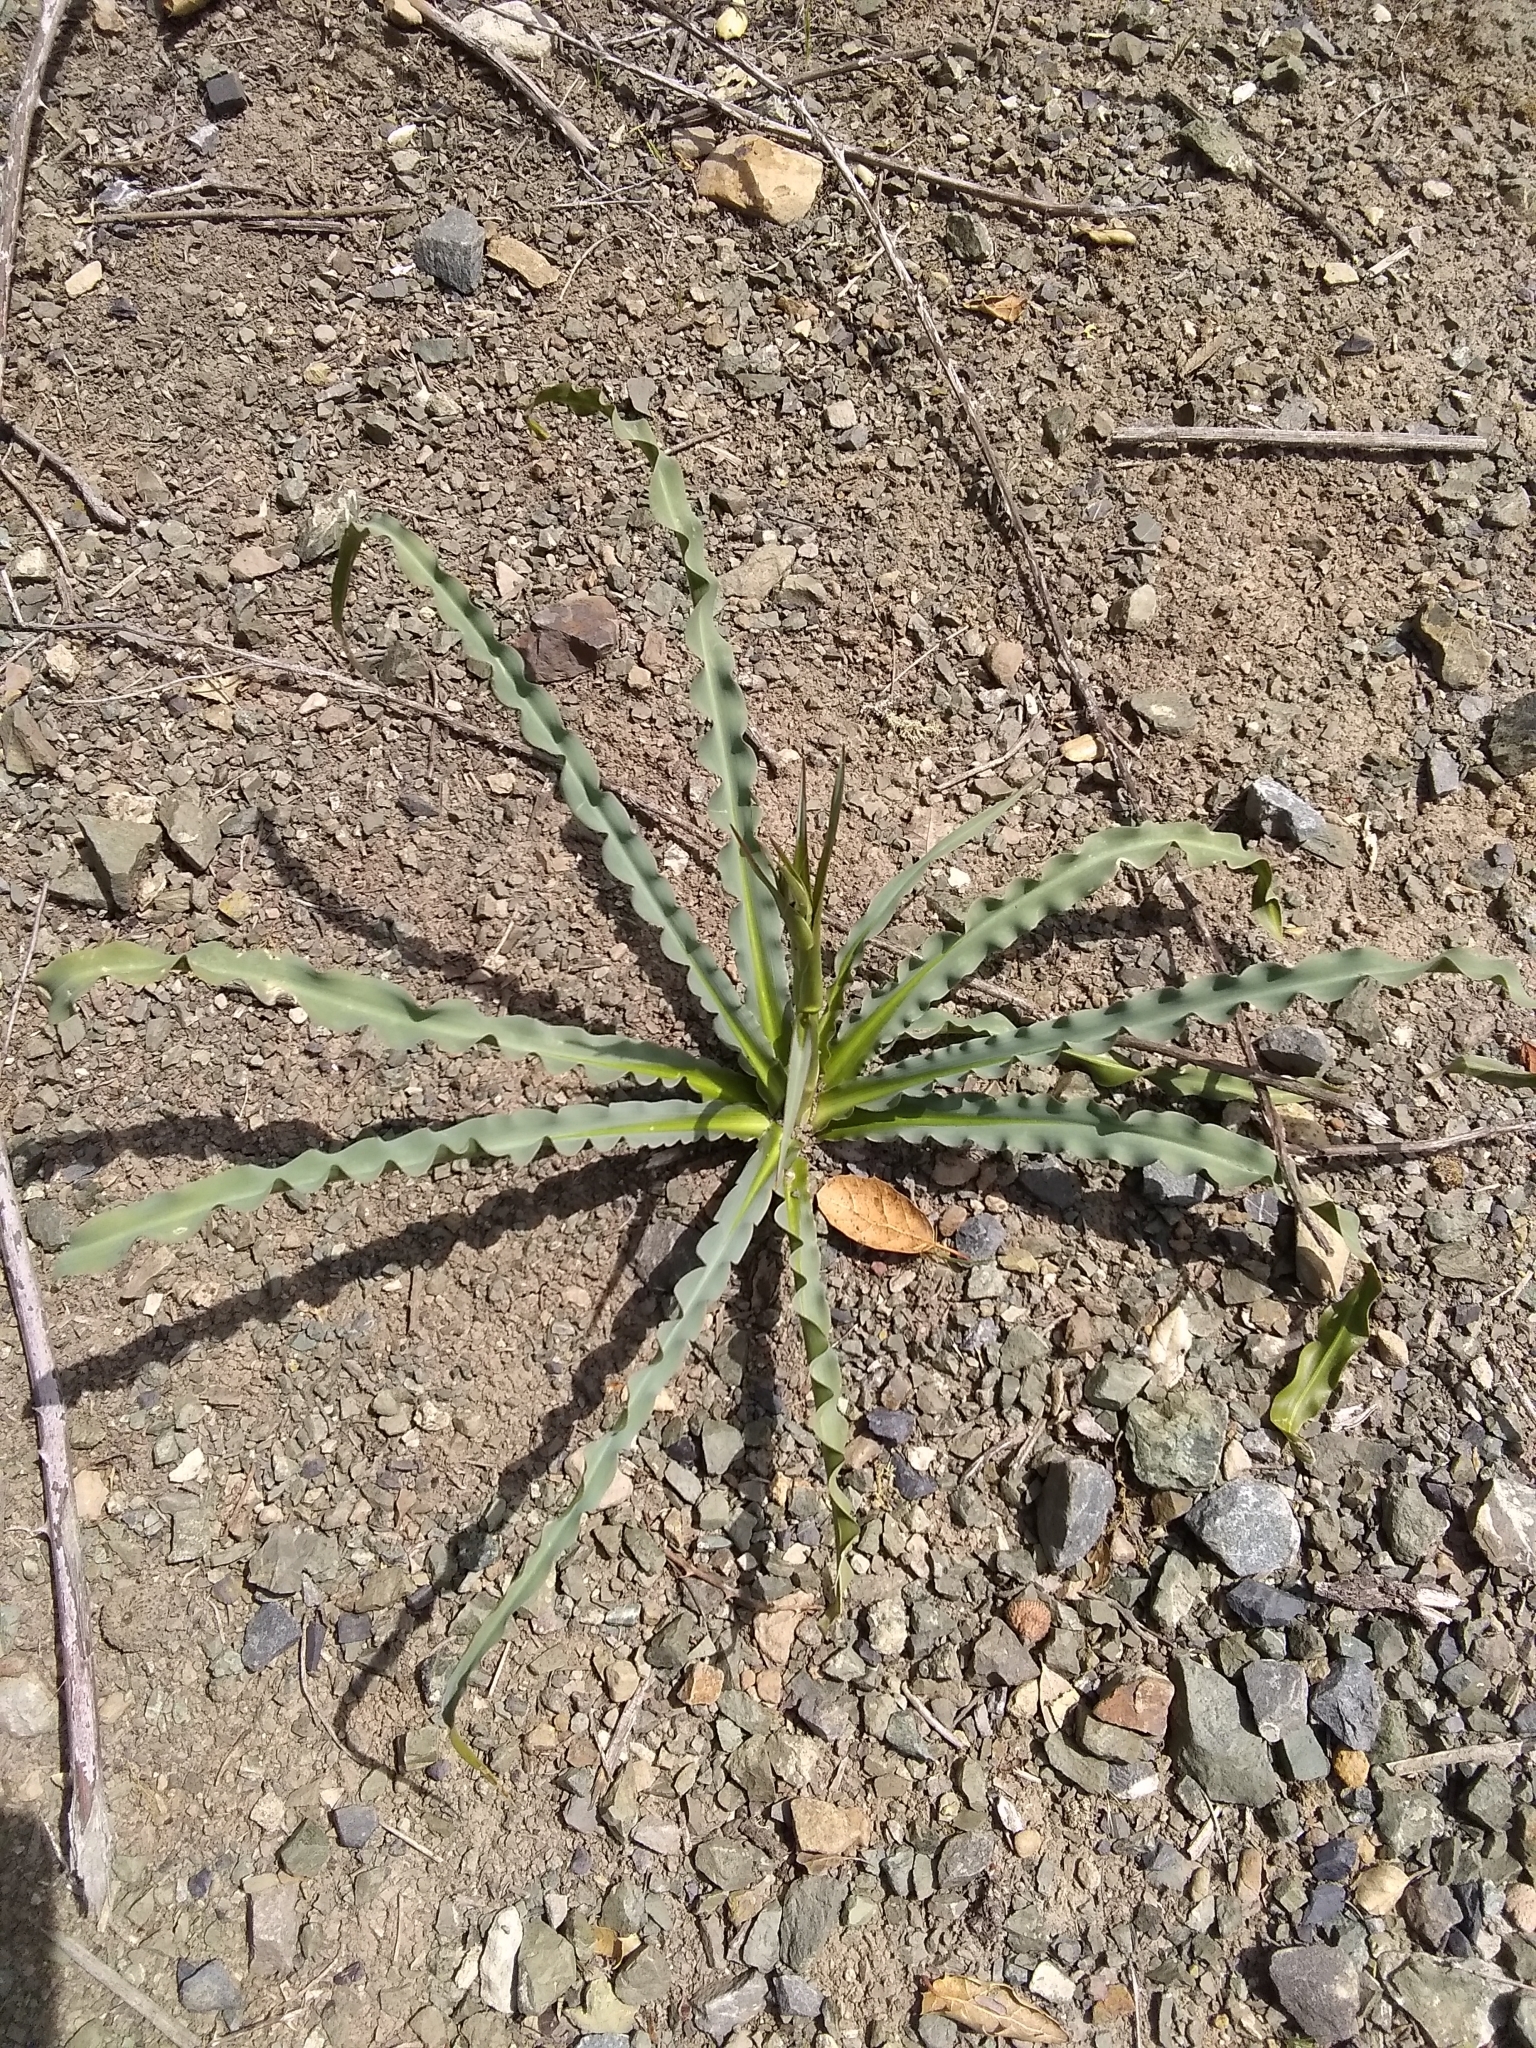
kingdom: Plantae
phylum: Tracheophyta
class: Liliopsida
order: Asparagales
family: Asparagaceae
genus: Chlorogalum
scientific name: Chlorogalum pomeridianum
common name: Amole
